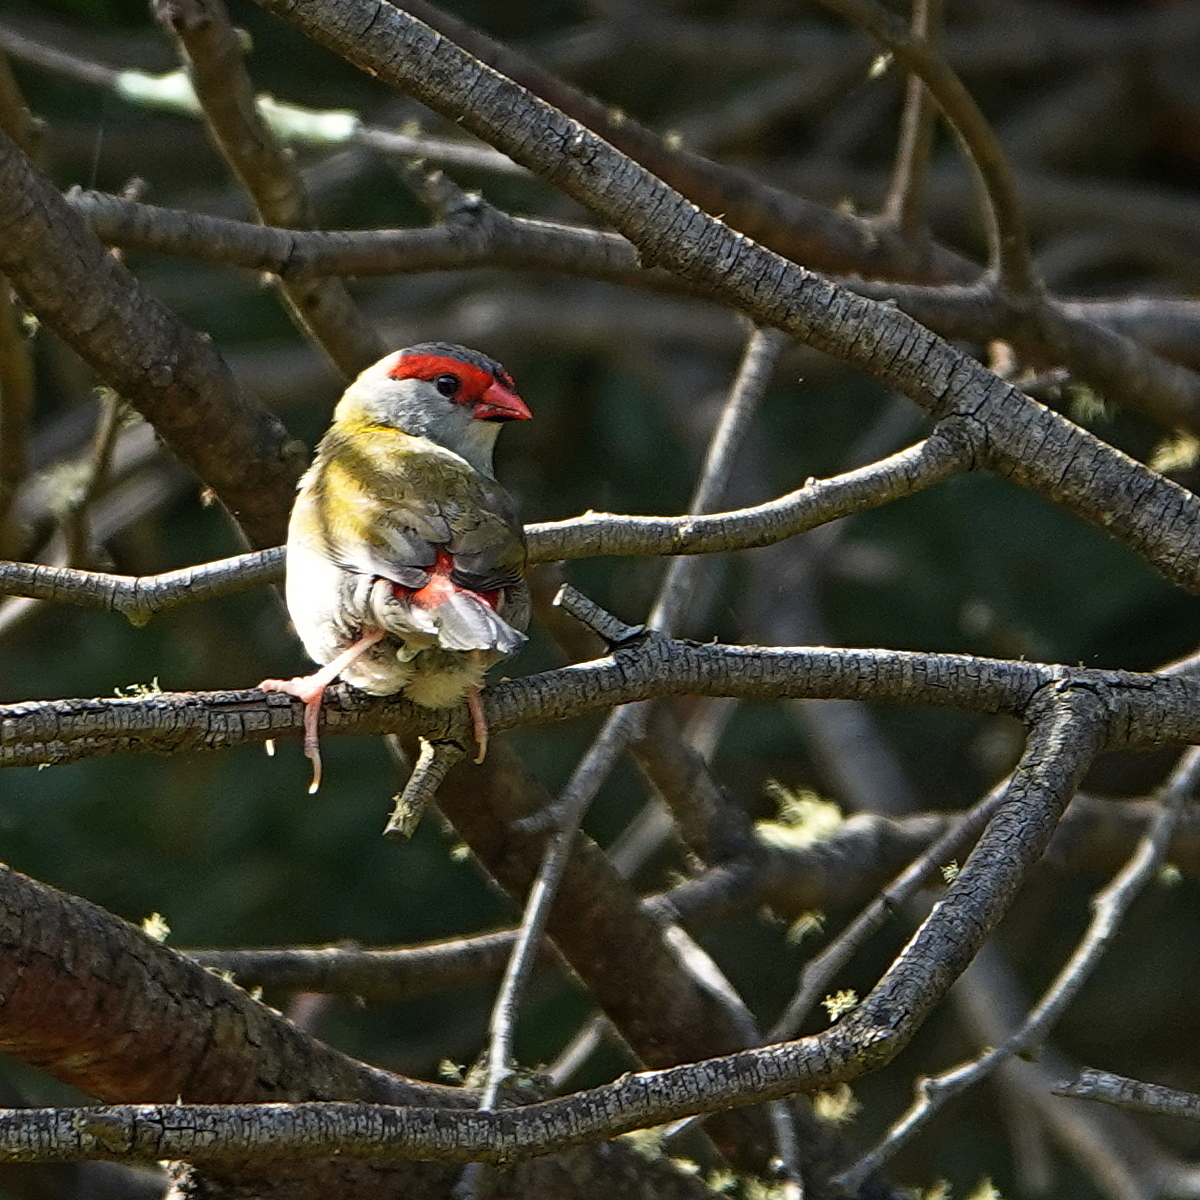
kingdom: Animalia
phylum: Chordata
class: Aves
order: Passeriformes
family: Estrildidae
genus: Neochmia
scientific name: Neochmia temporalis
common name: Red-browed finch
